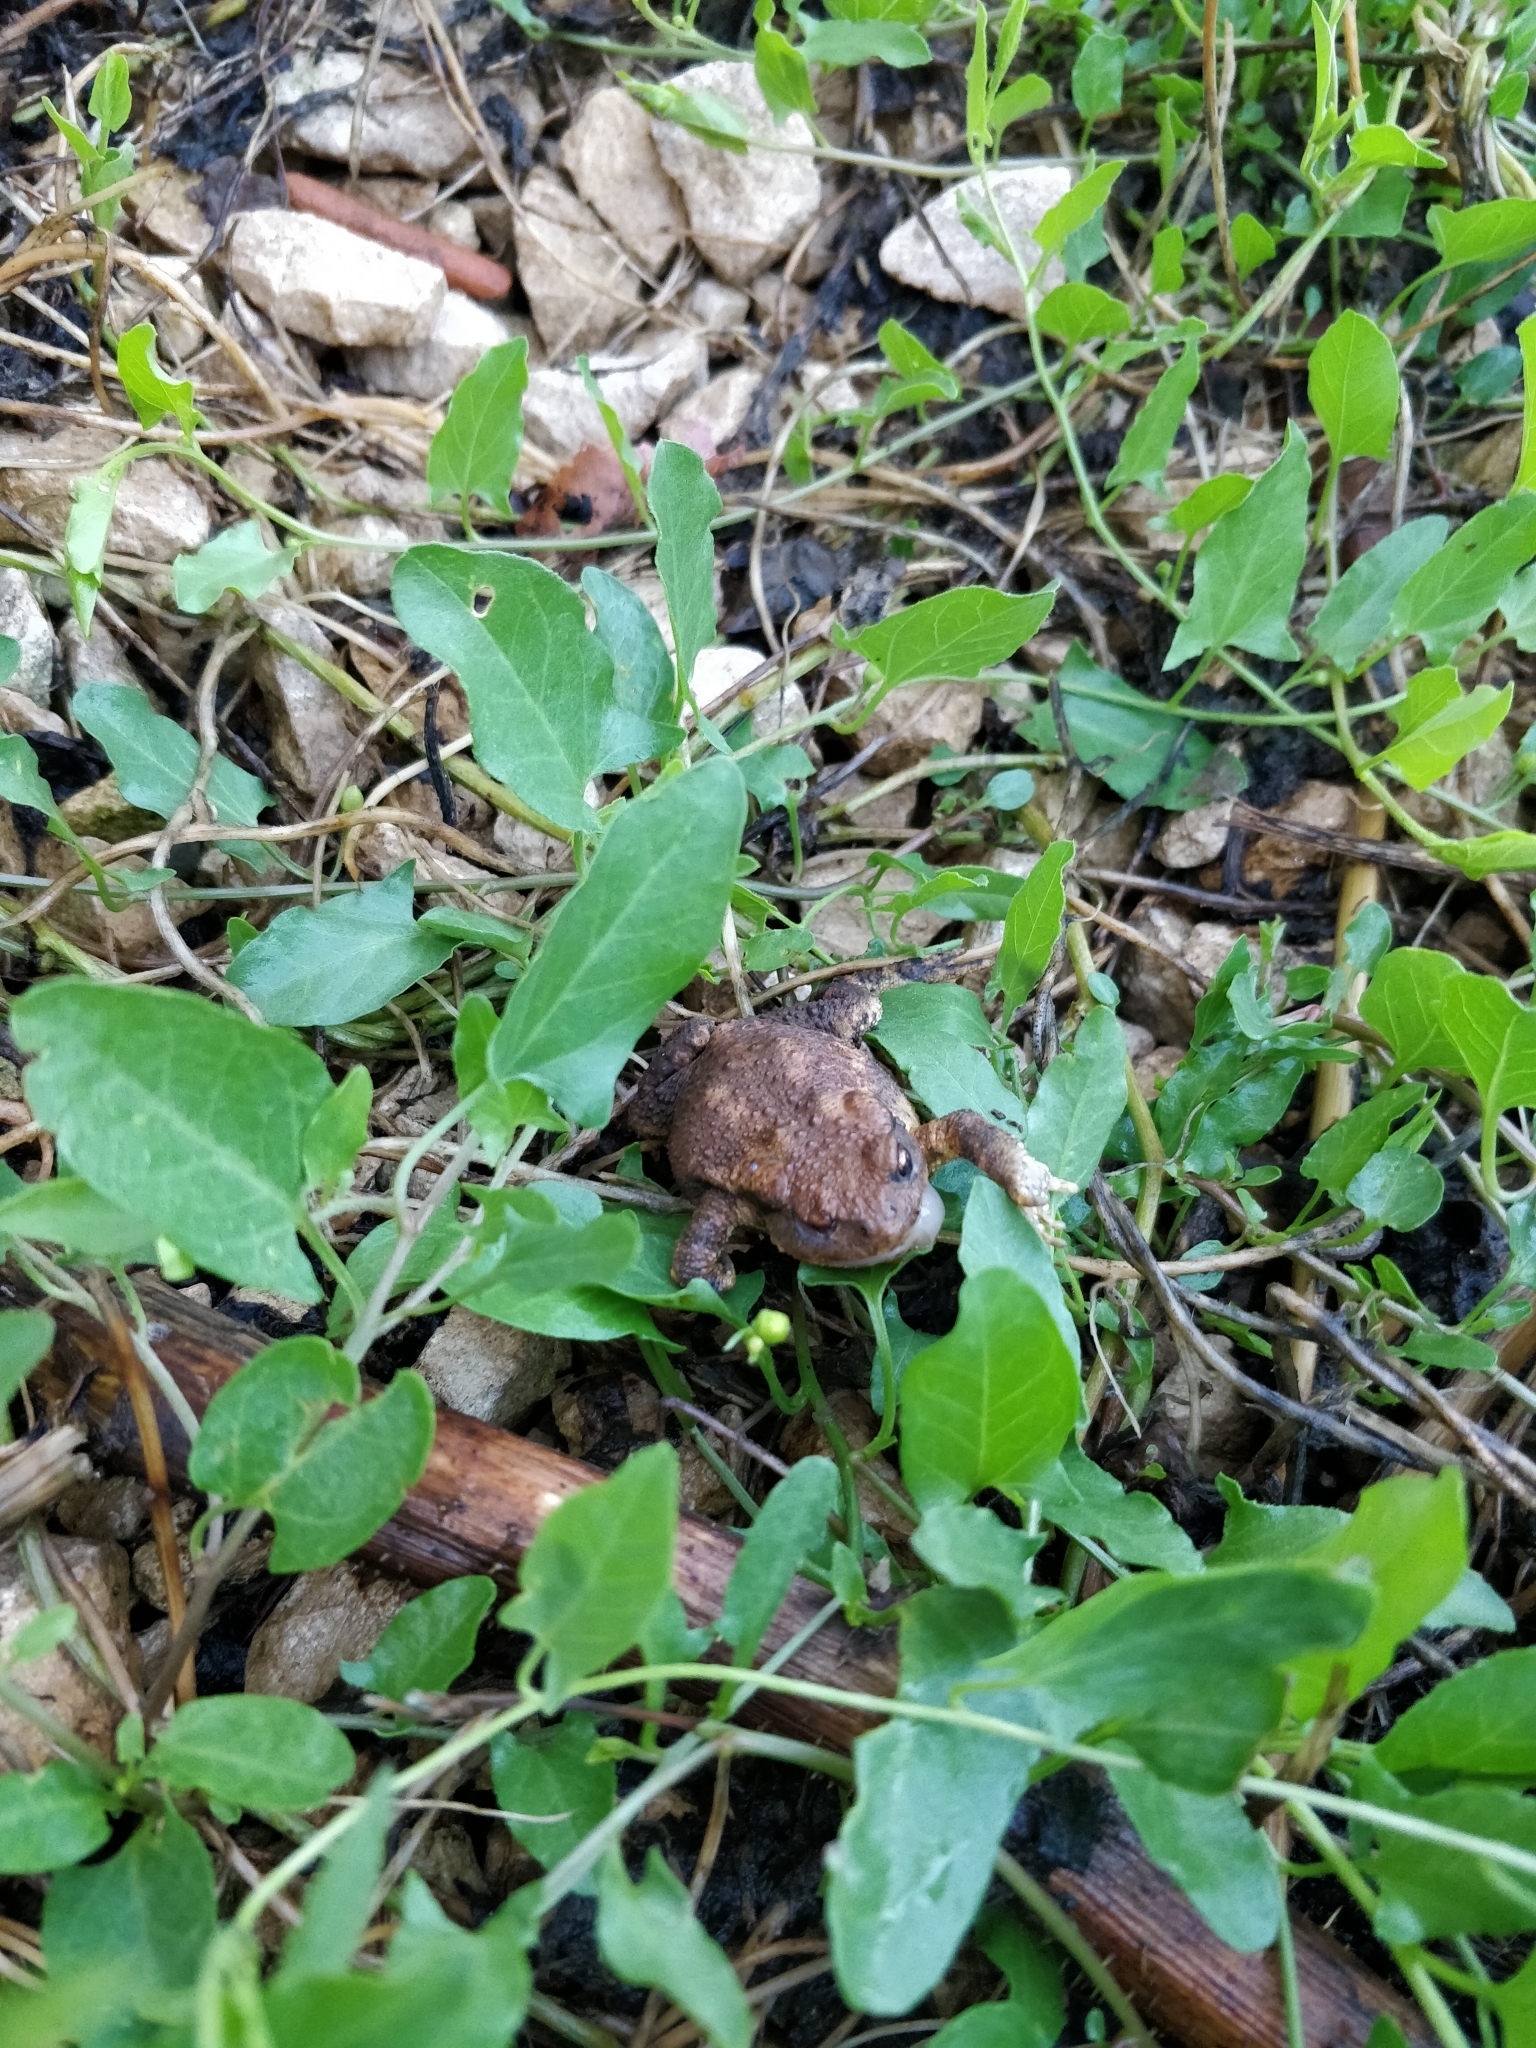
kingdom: Animalia
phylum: Chordata
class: Amphibia
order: Anura
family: Bufonidae
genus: Bufo
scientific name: Bufo spinosus
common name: Western common toad
